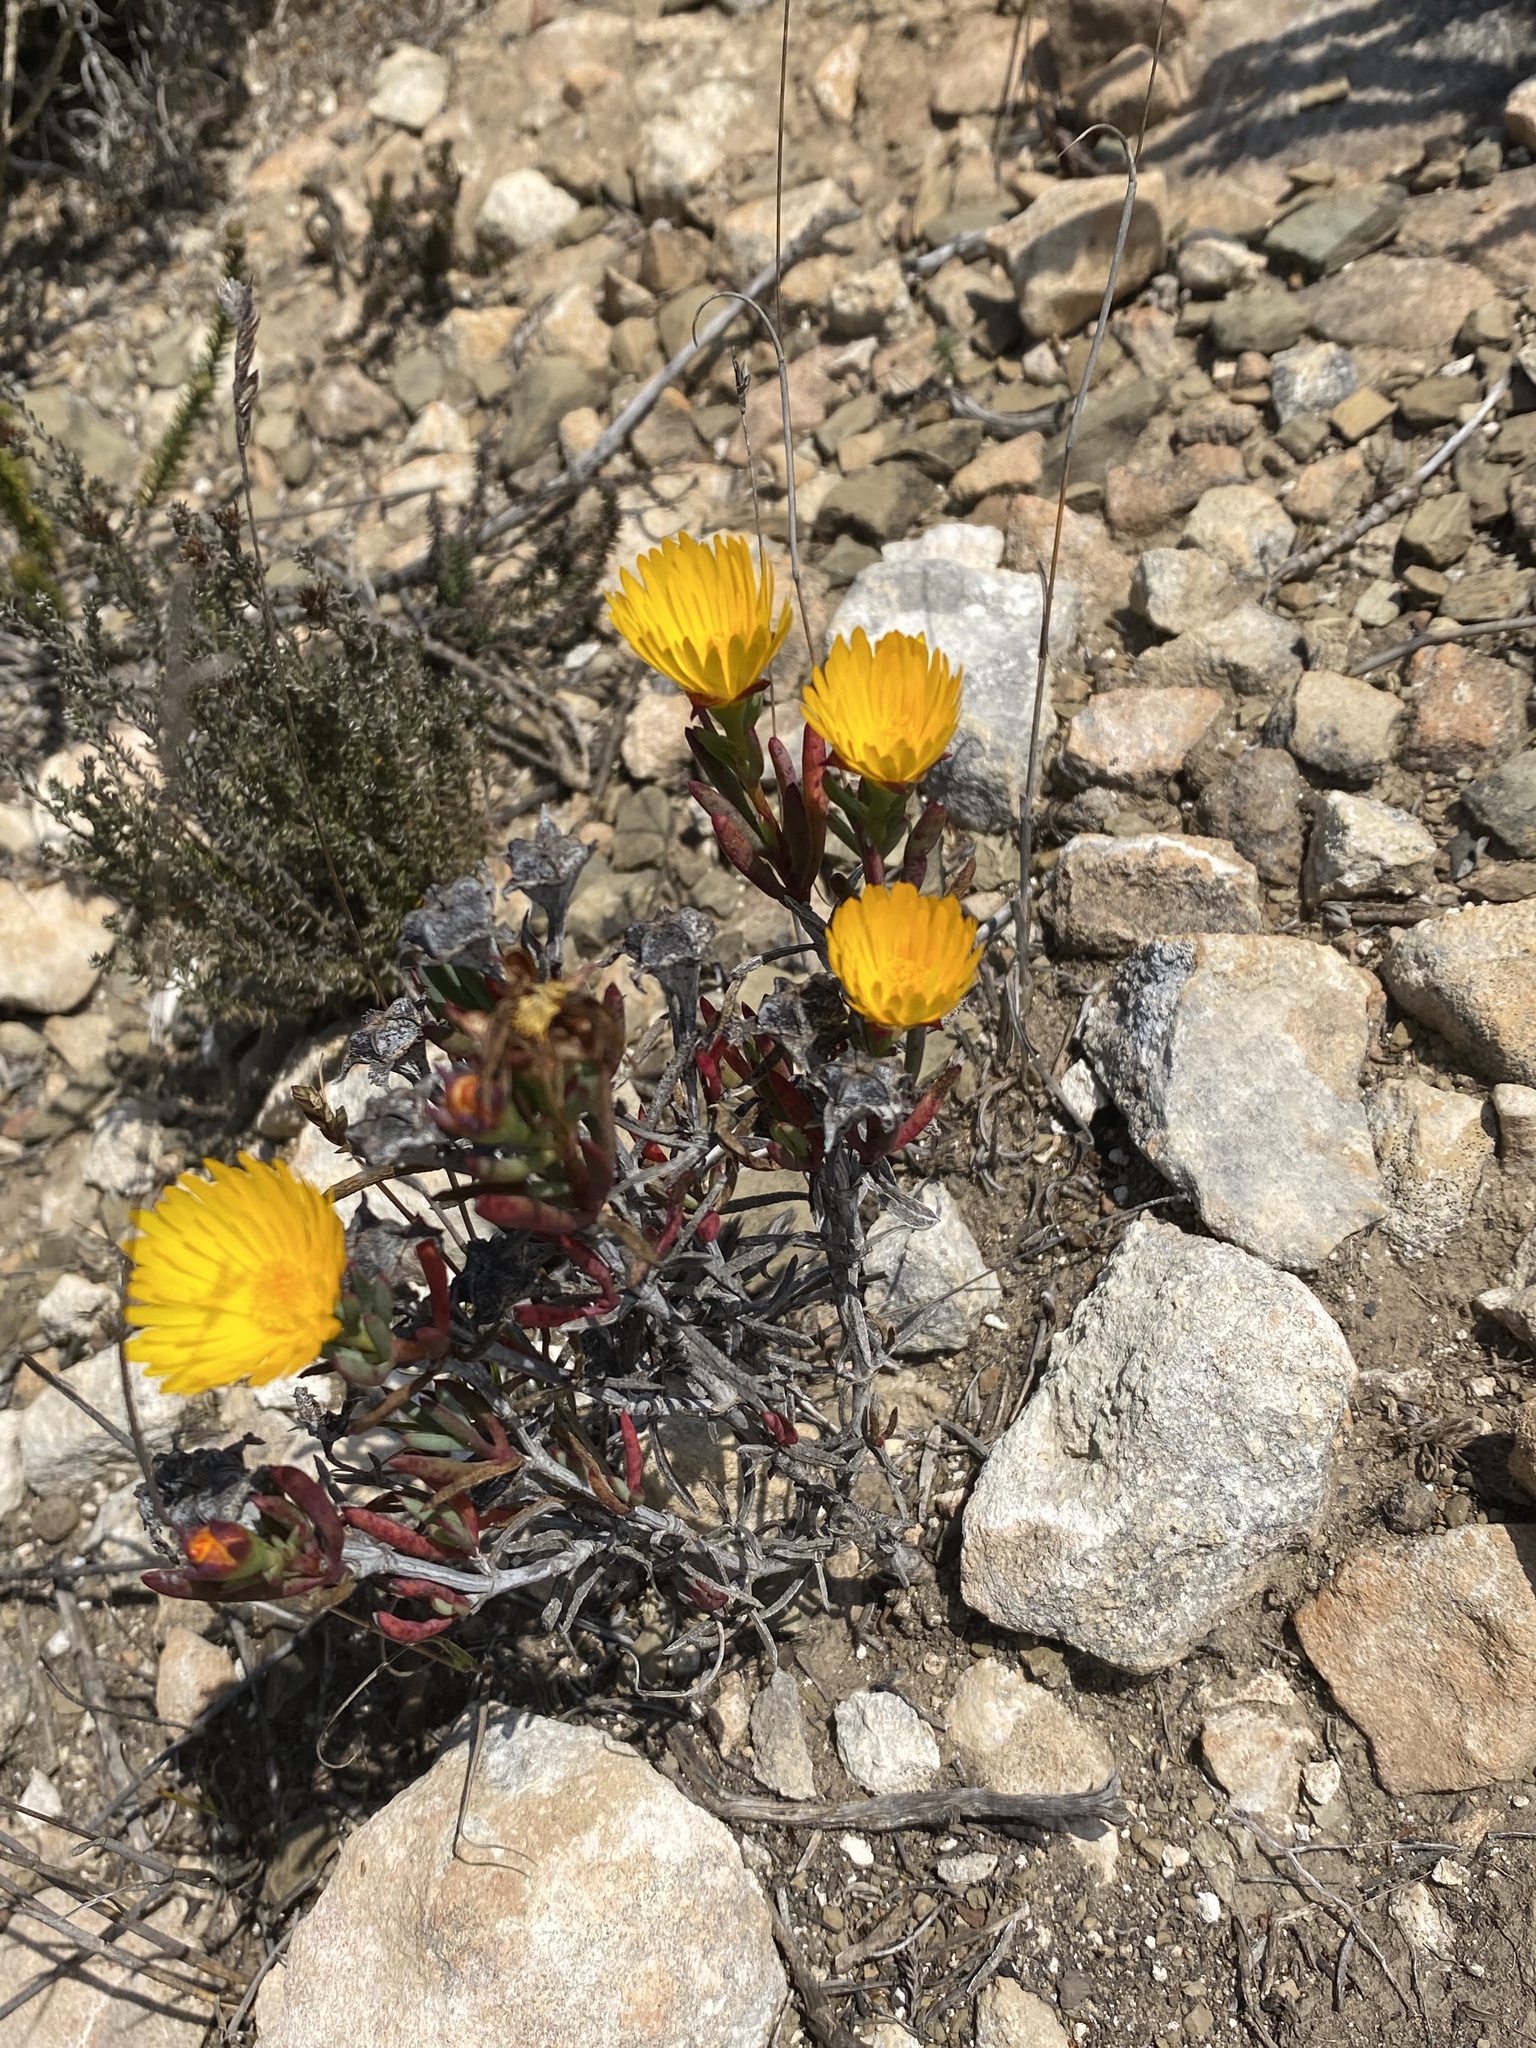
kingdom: Plantae
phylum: Tracheophyta
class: Magnoliopsida
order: Caryophyllales
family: Aizoaceae
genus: Lampranthus
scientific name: Lampranthus bicolor
